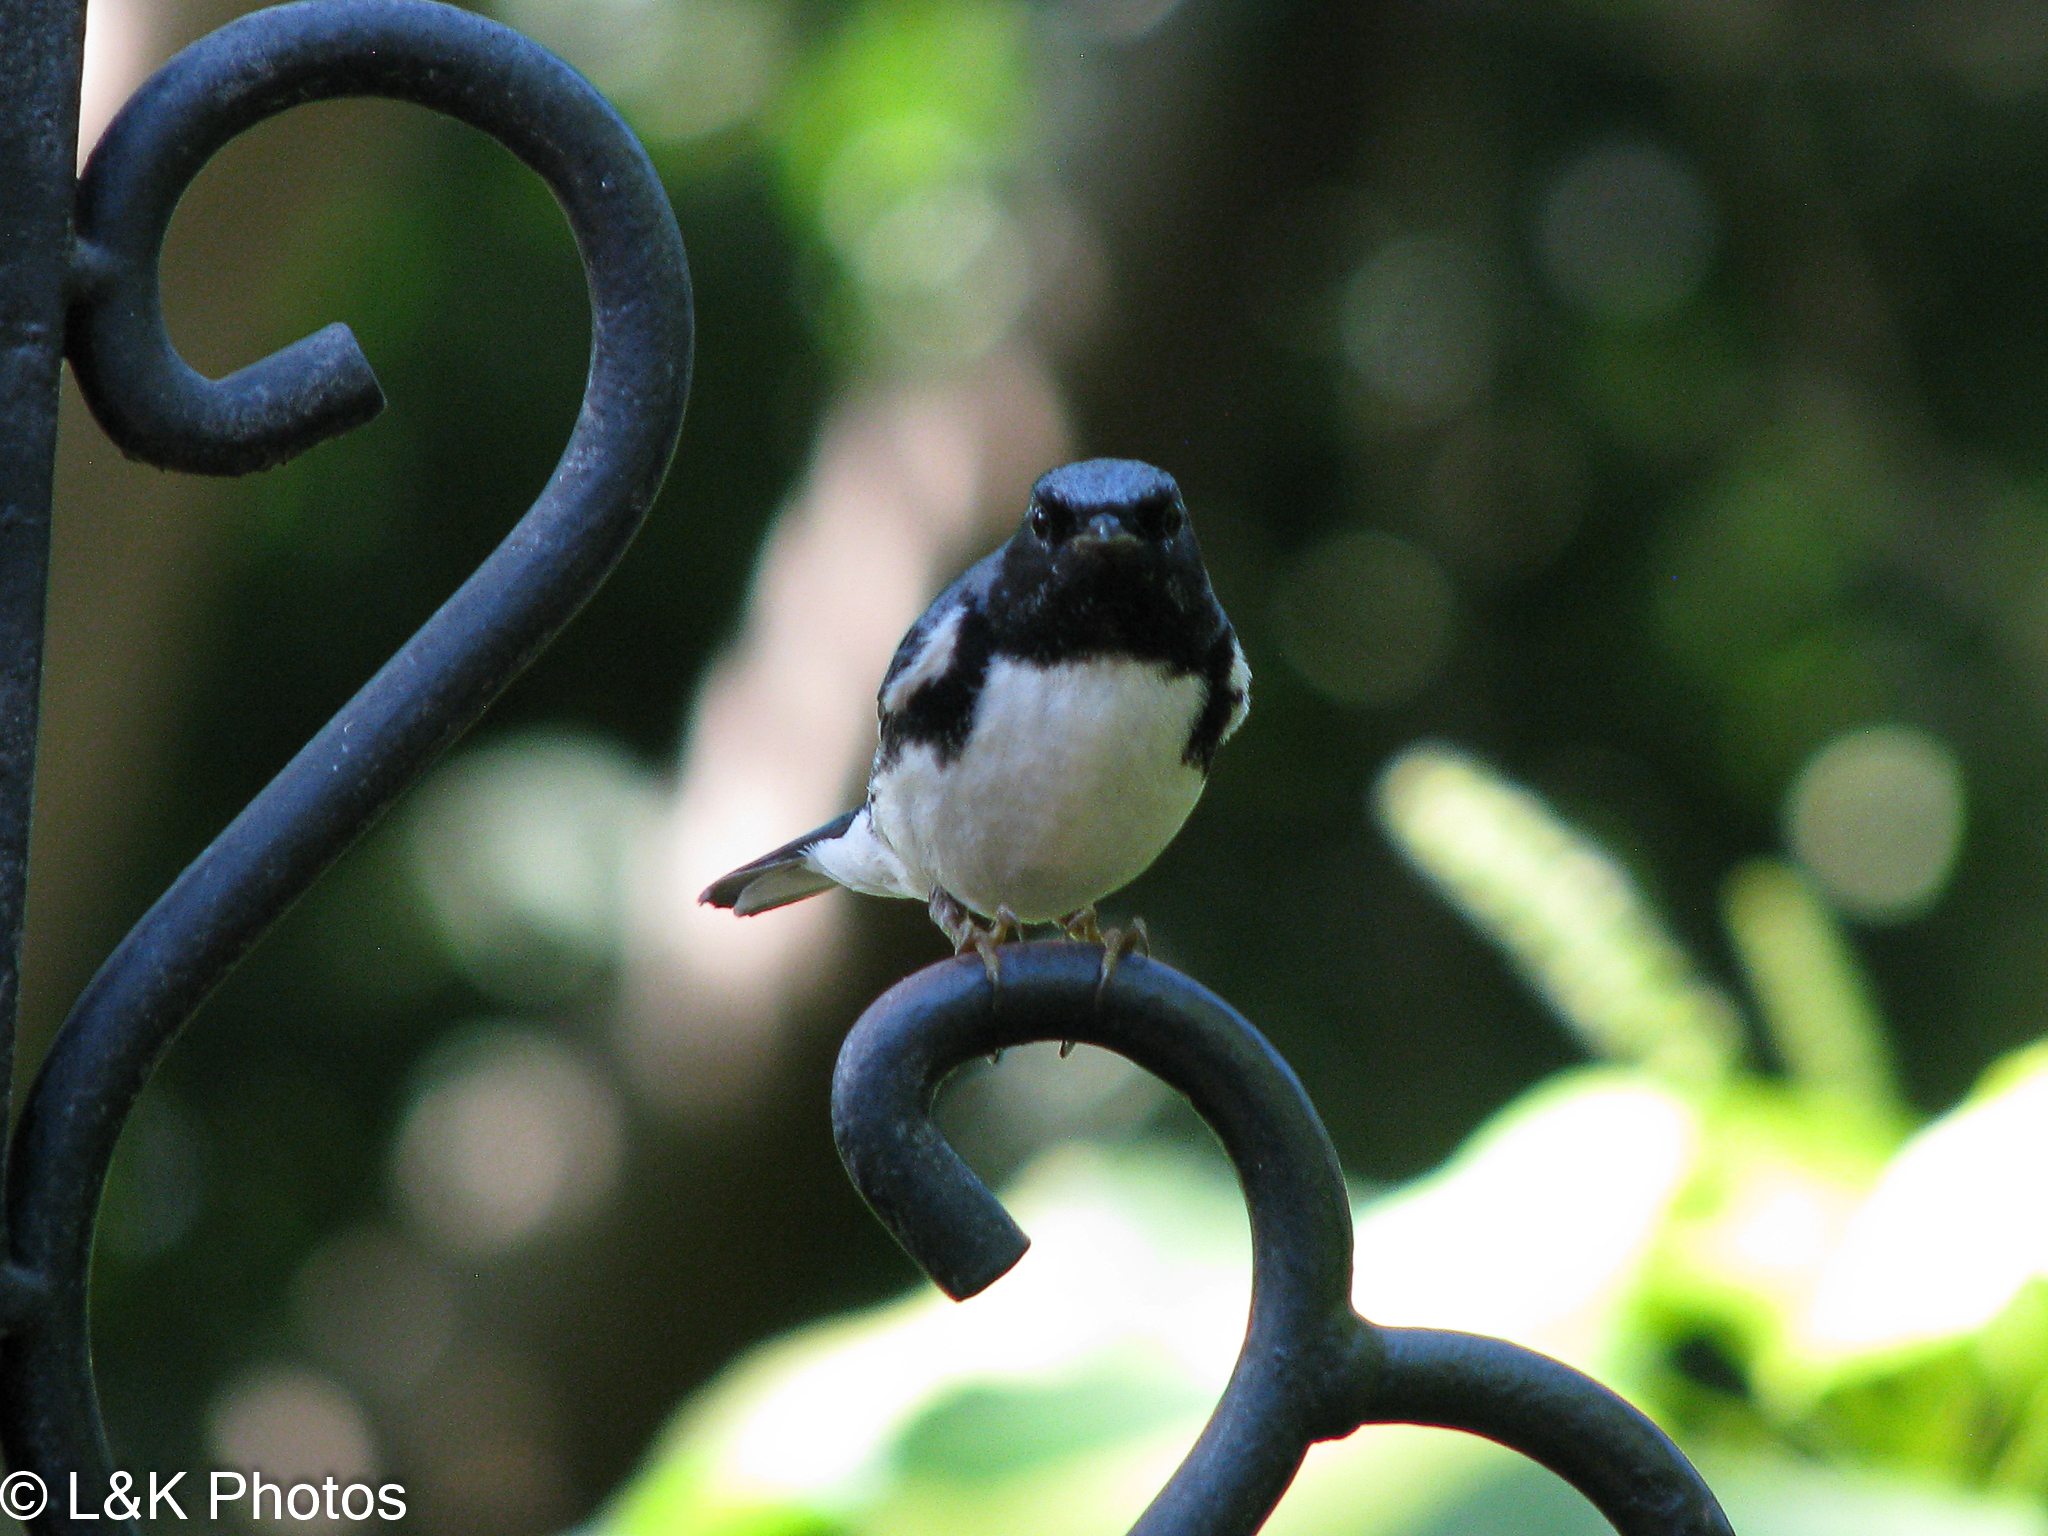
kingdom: Animalia
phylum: Chordata
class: Aves
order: Passeriformes
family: Parulidae
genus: Setophaga
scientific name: Setophaga caerulescens
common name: Black-throated blue warbler
